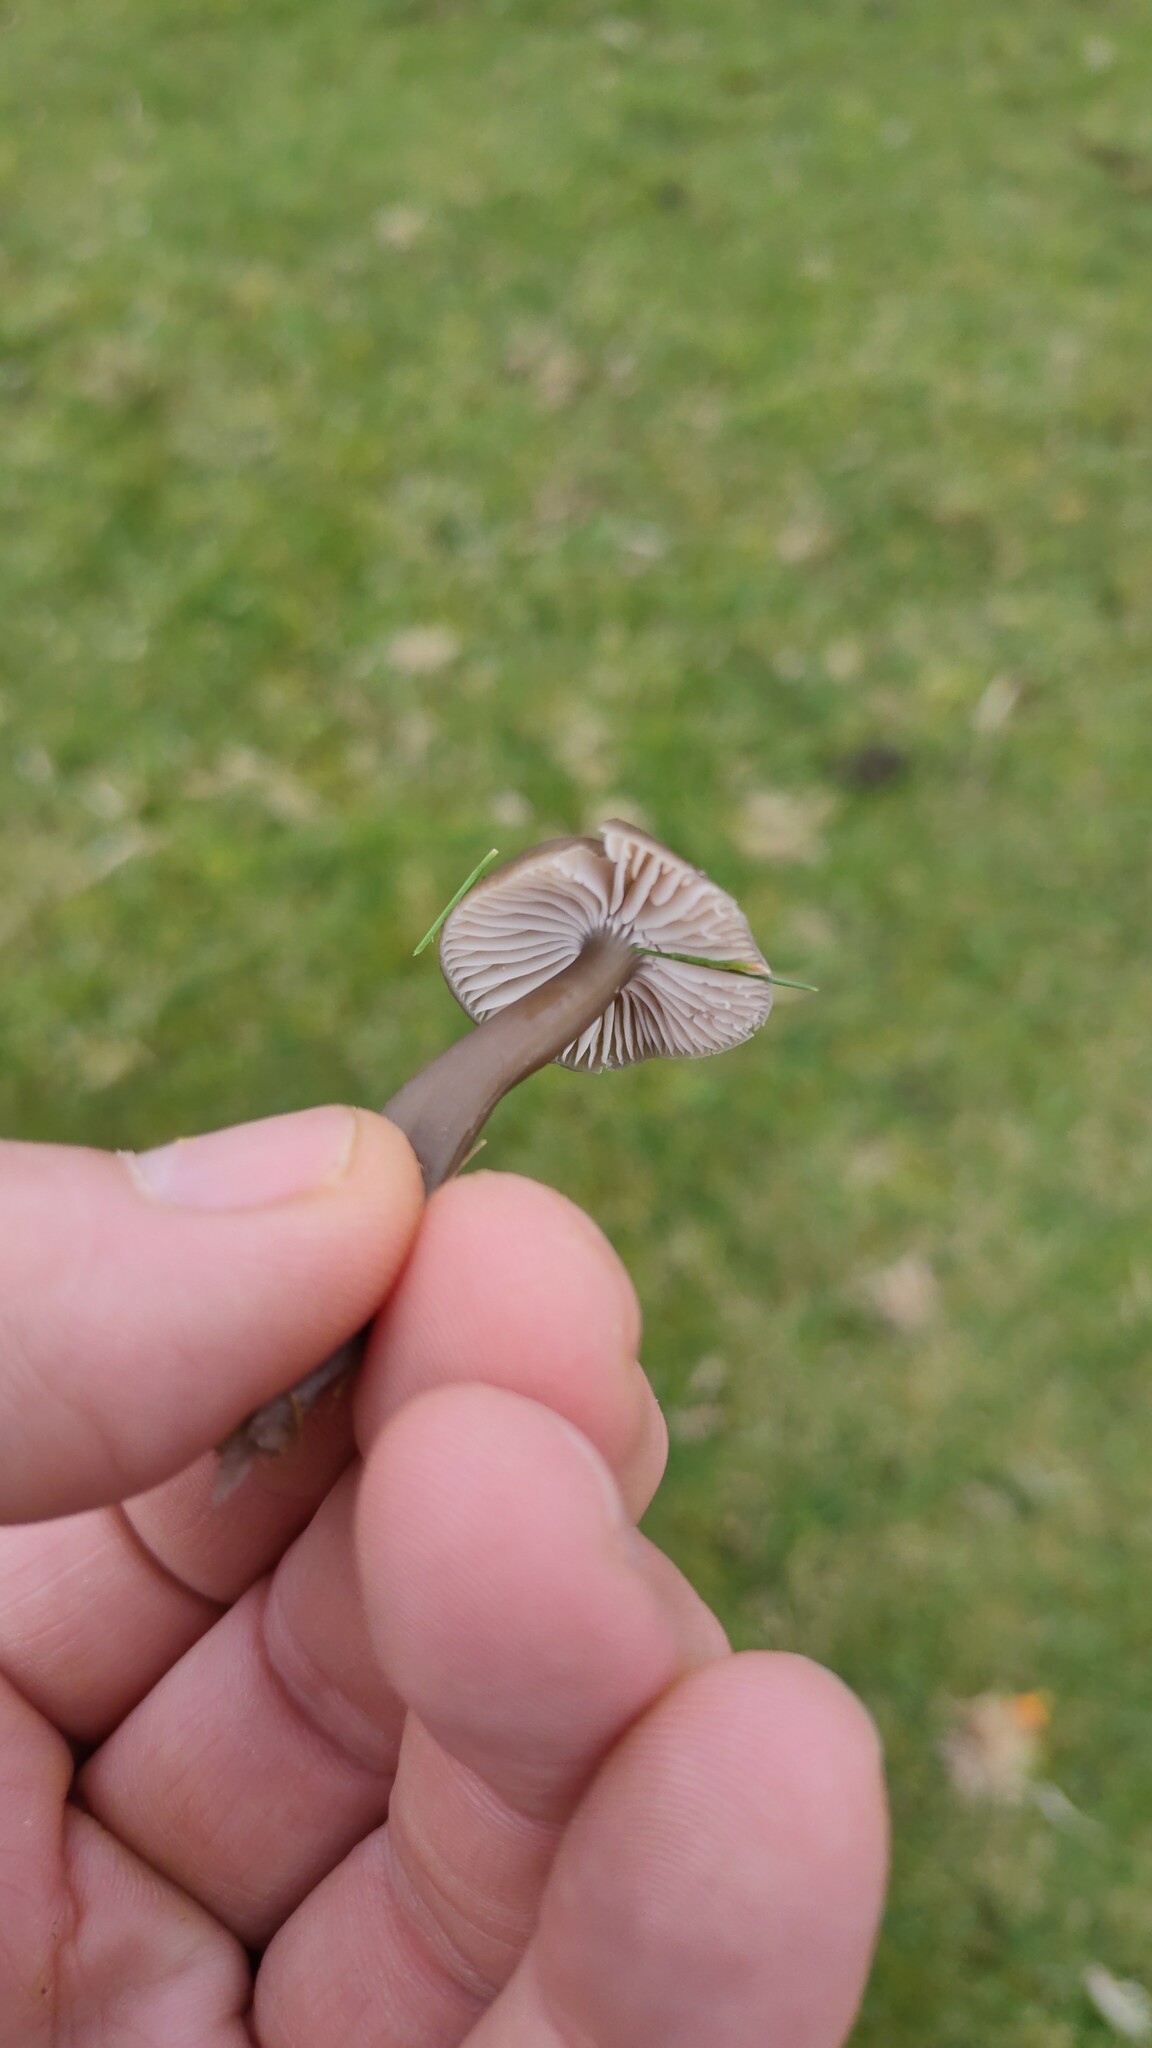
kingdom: Fungi
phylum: Basidiomycota
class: Agaricomycetes
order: Agaricales
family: Clavariaceae
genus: Camarophyllopsis
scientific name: Camarophyllopsis atrovelutina
